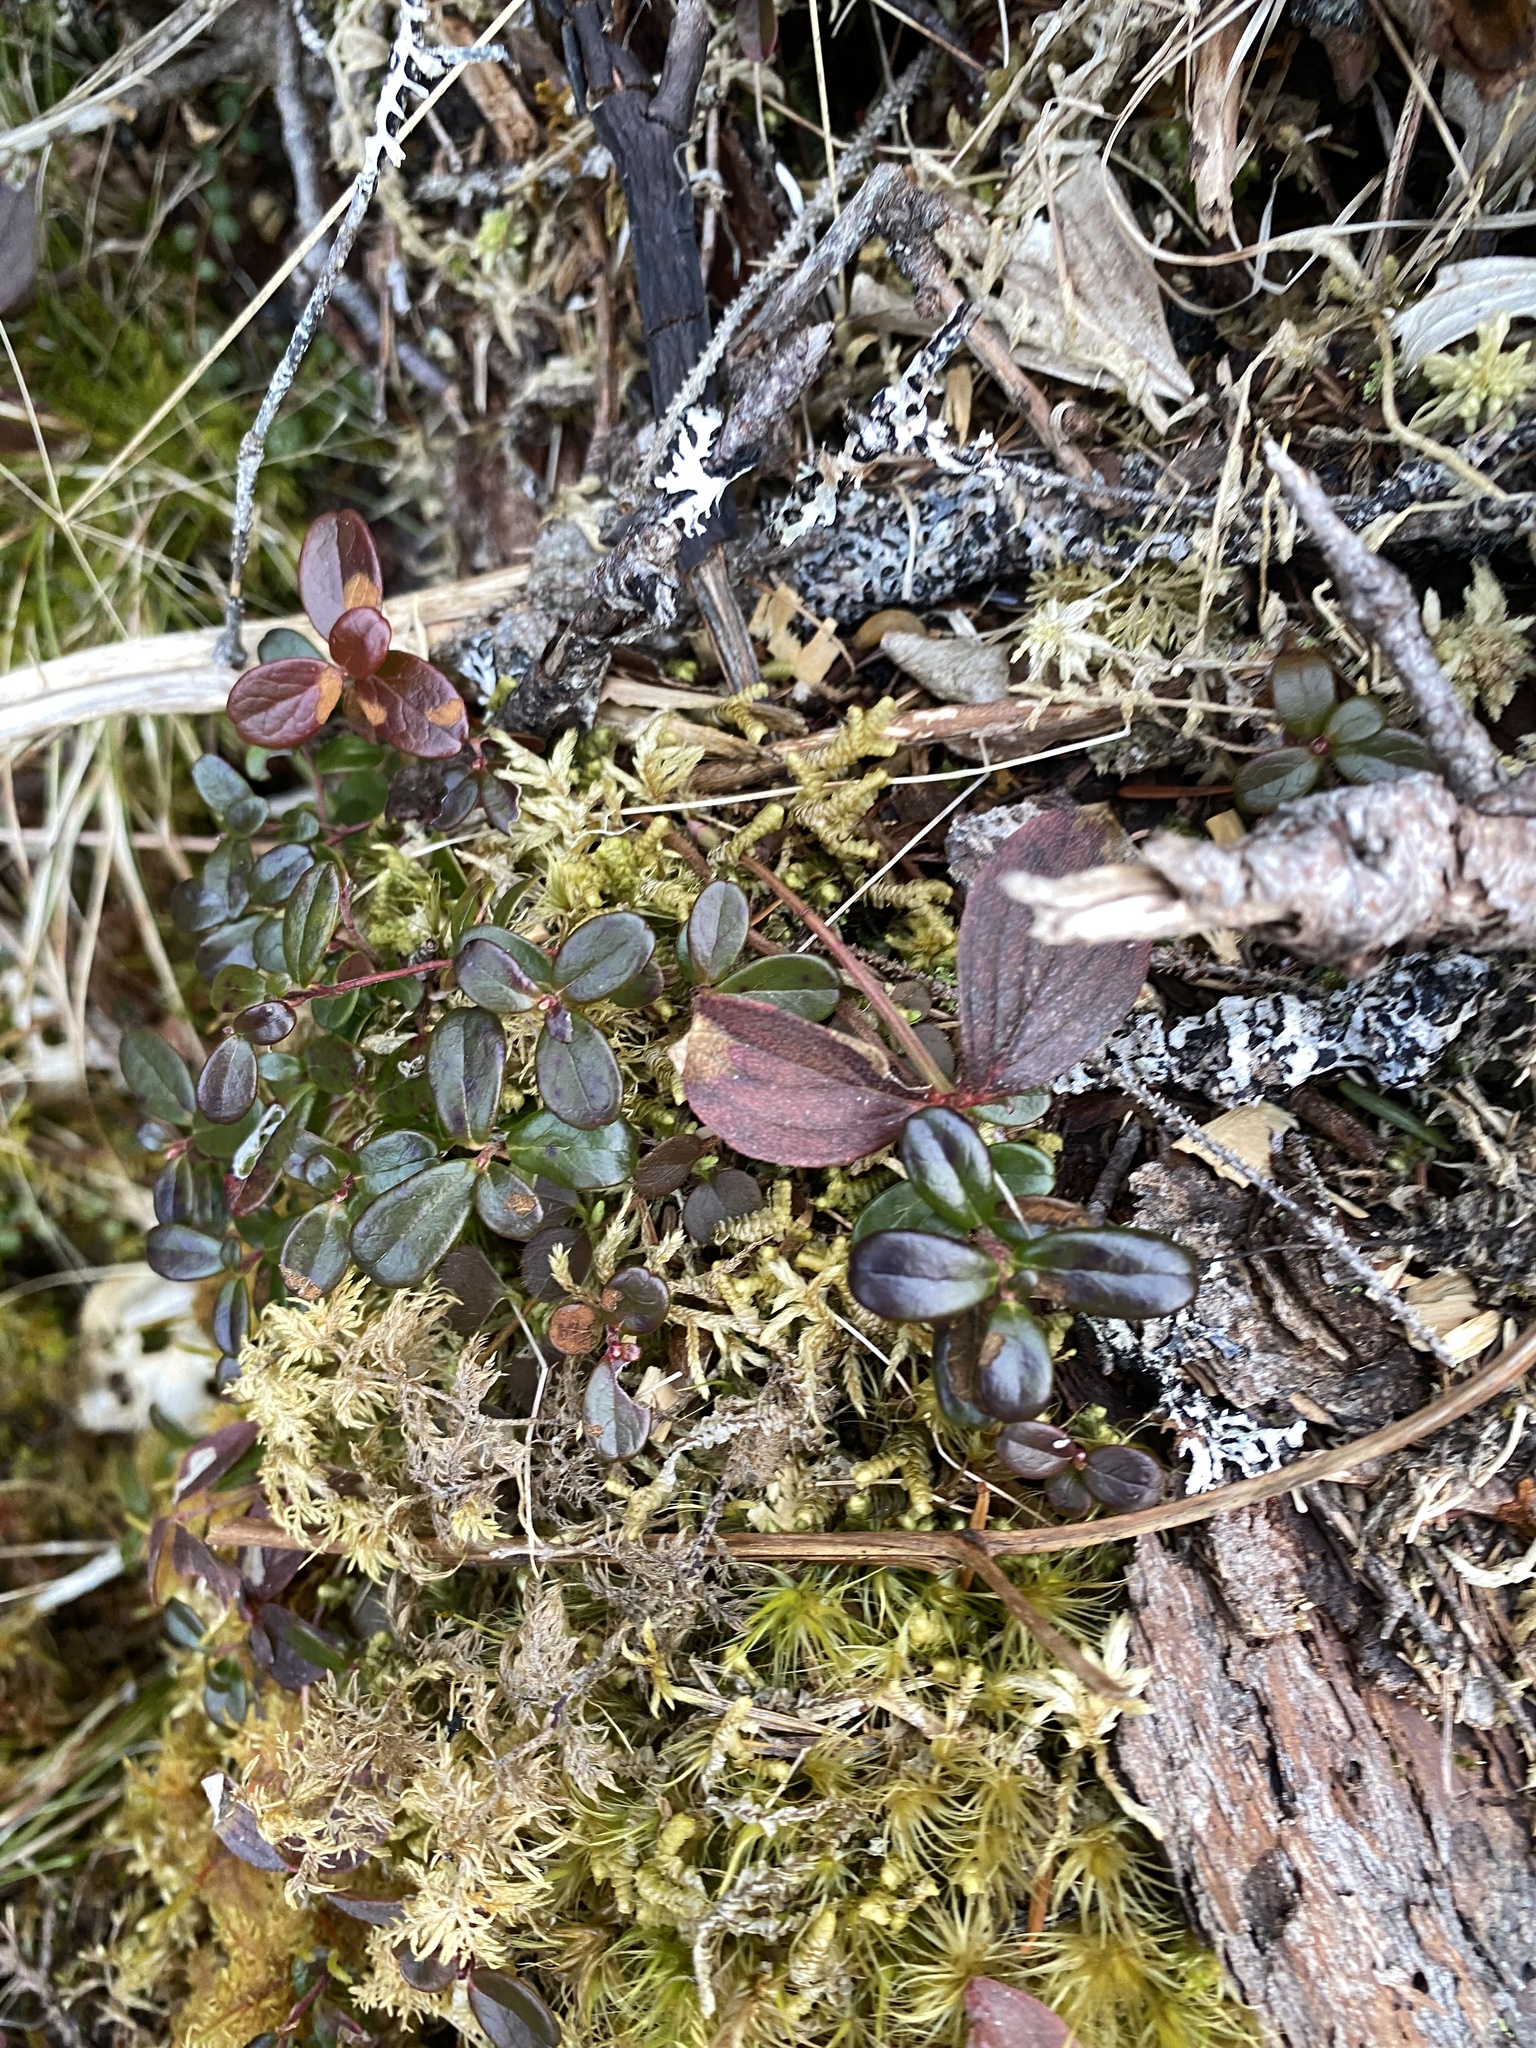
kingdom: Plantae
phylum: Tracheophyta
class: Magnoliopsida
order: Ericales
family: Ericaceae
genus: Vaccinium
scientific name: Vaccinium vitis-idaea
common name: Cowberry
